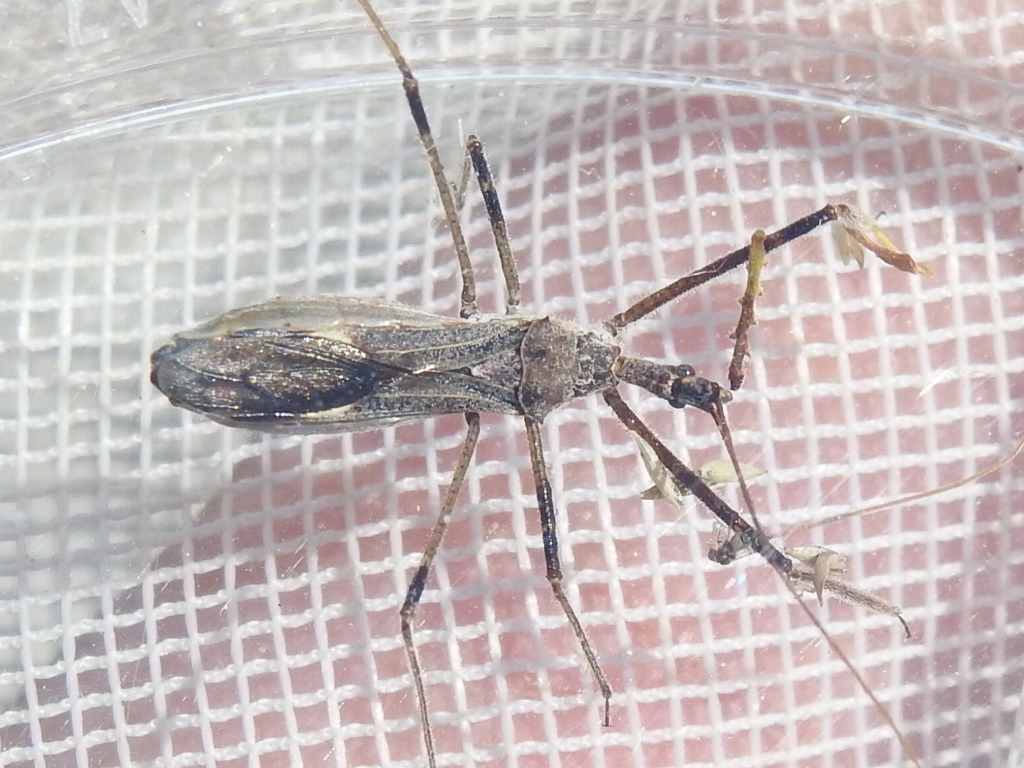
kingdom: Animalia
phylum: Arthropoda
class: Insecta
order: Hemiptera
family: Reduviidae
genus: Zelus
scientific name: Zelus tetracanthus
